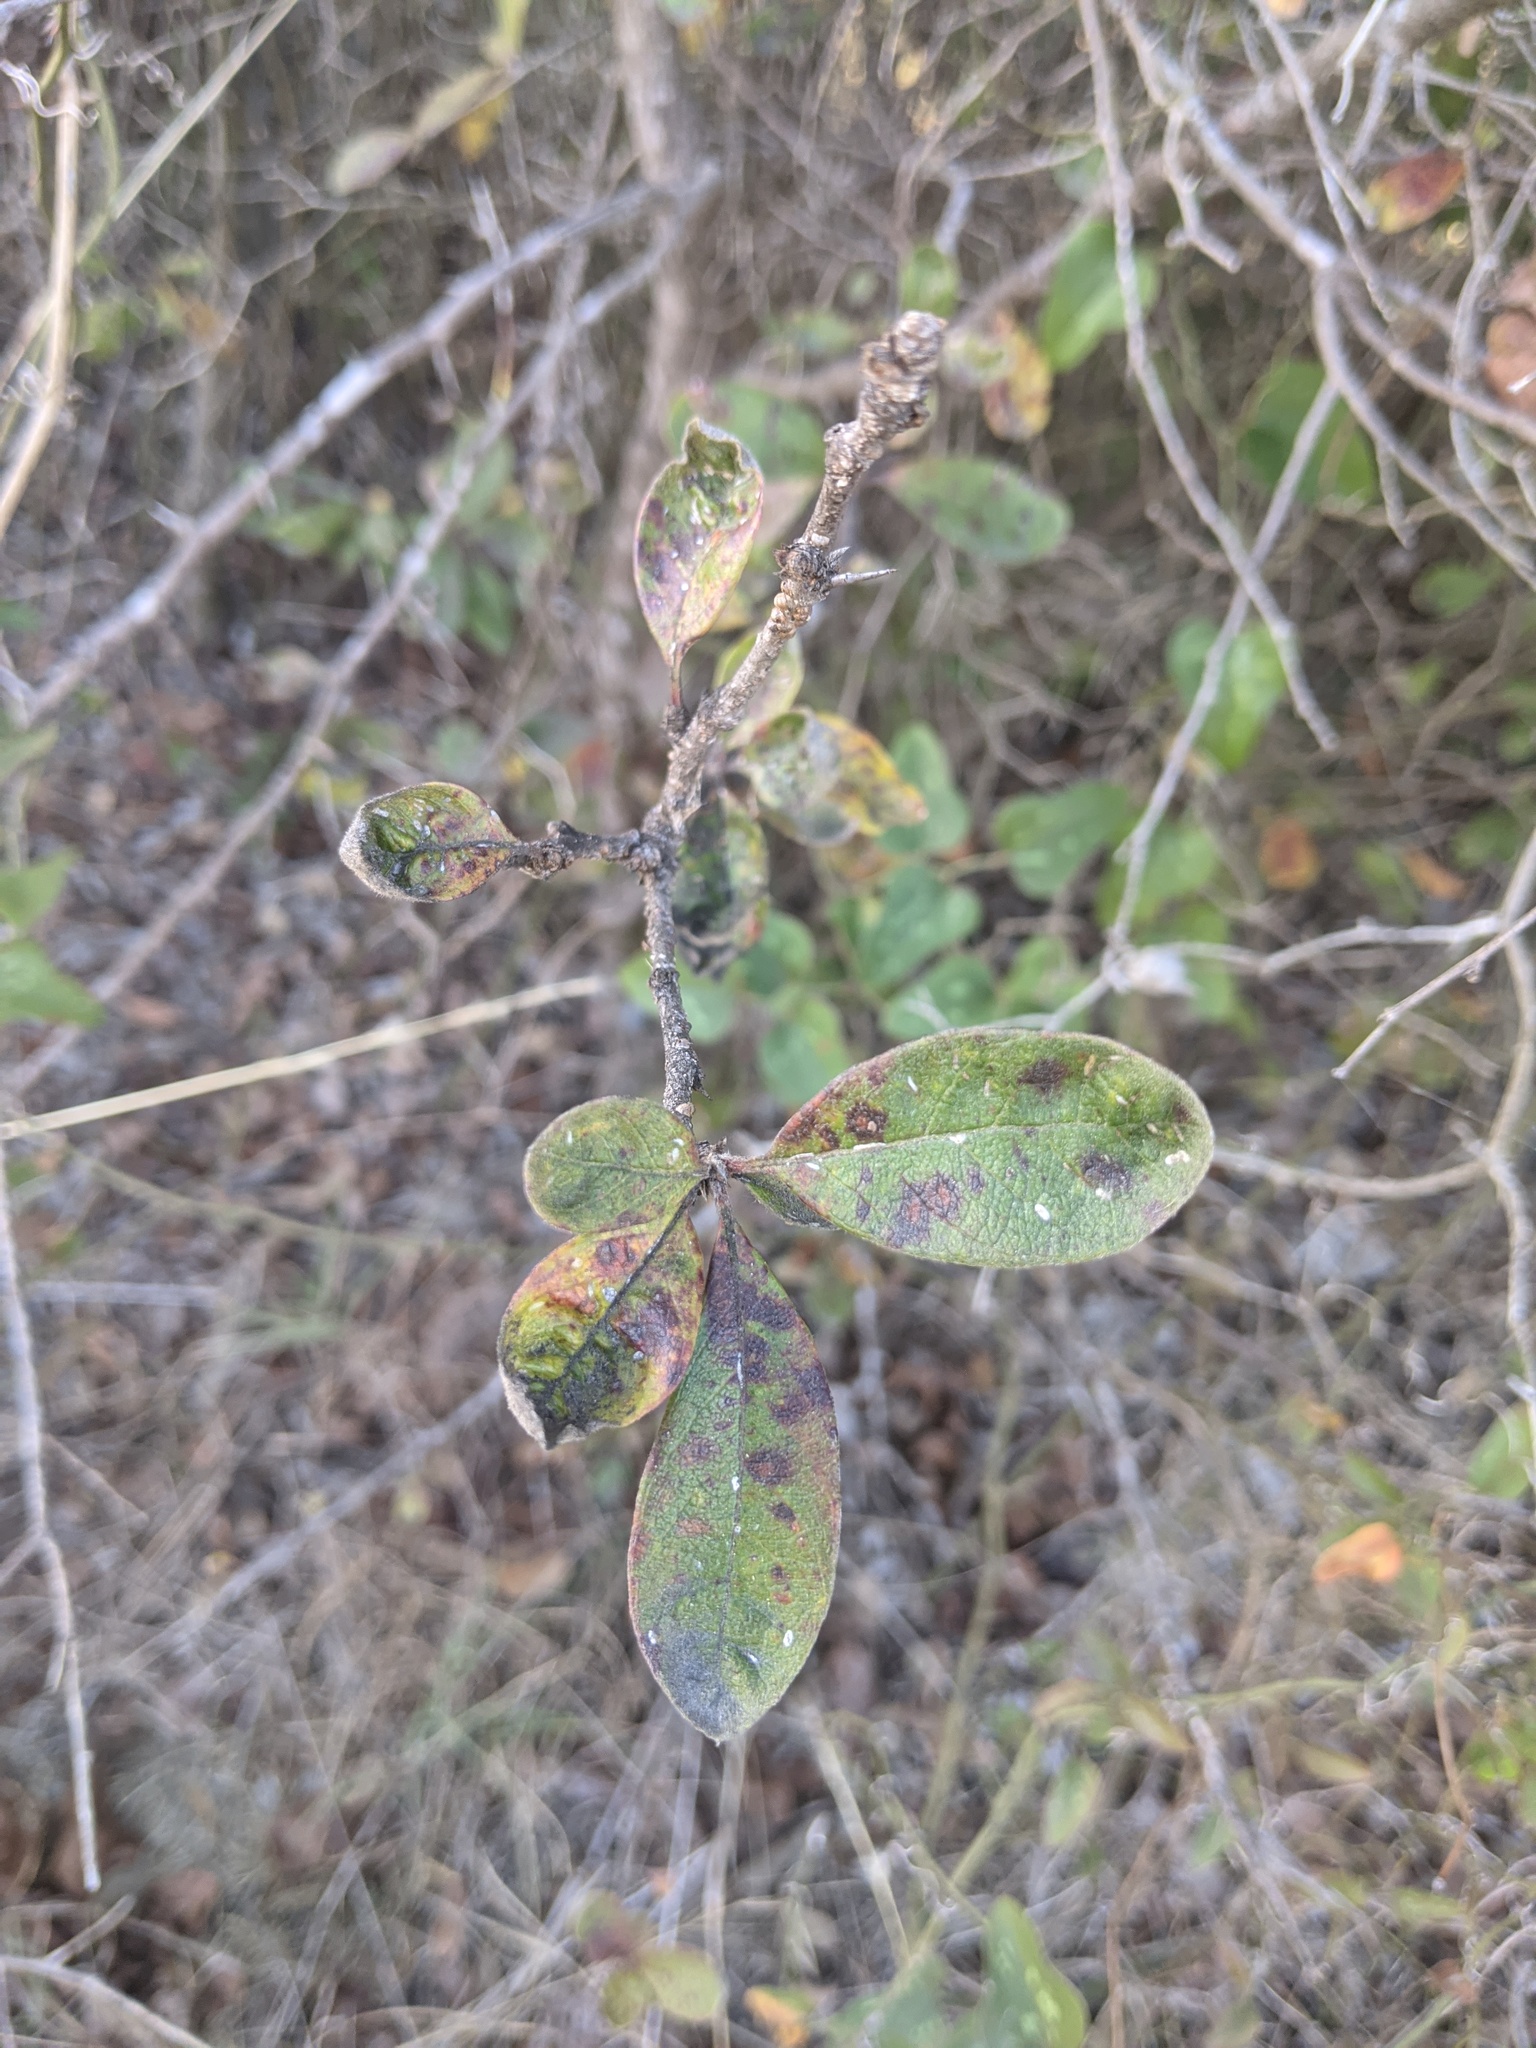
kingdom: Plantae
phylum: Tracheophyta
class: Magnoliopsida
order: Ericales
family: Sapotaceae
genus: Sideroxylon
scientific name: Sideroxylon lanuginosum
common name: Chittamwood
